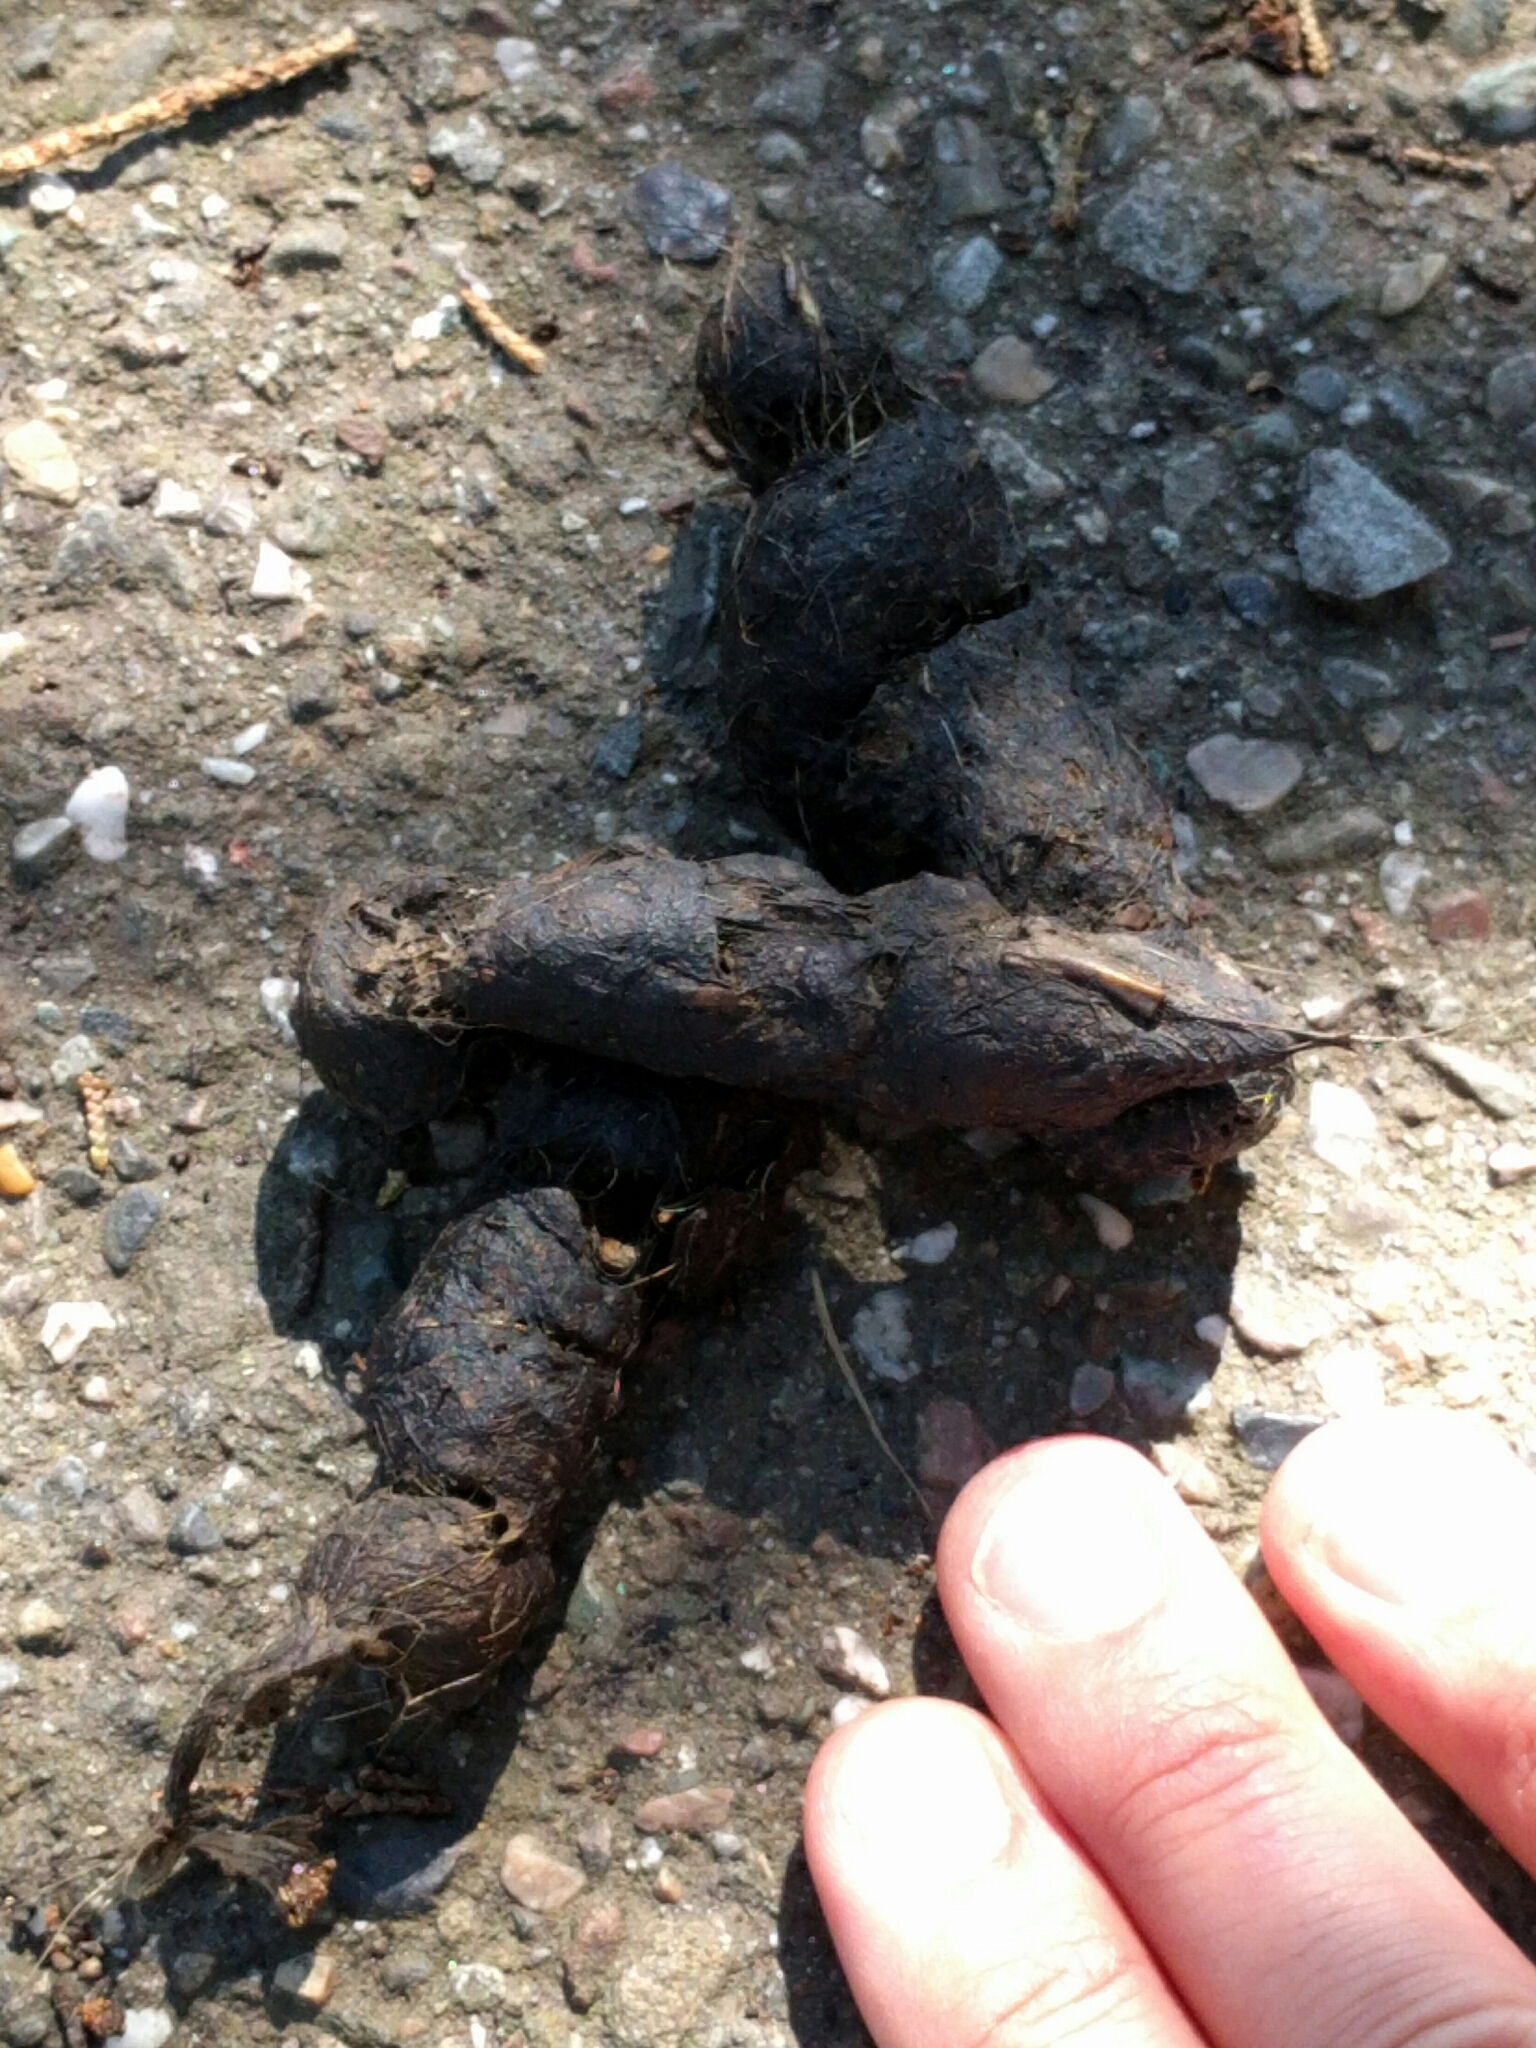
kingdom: Animalia
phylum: Chordata
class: Mammalia
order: Carnivora
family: Canidae
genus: Canis
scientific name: Canis latrans
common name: Coyote
